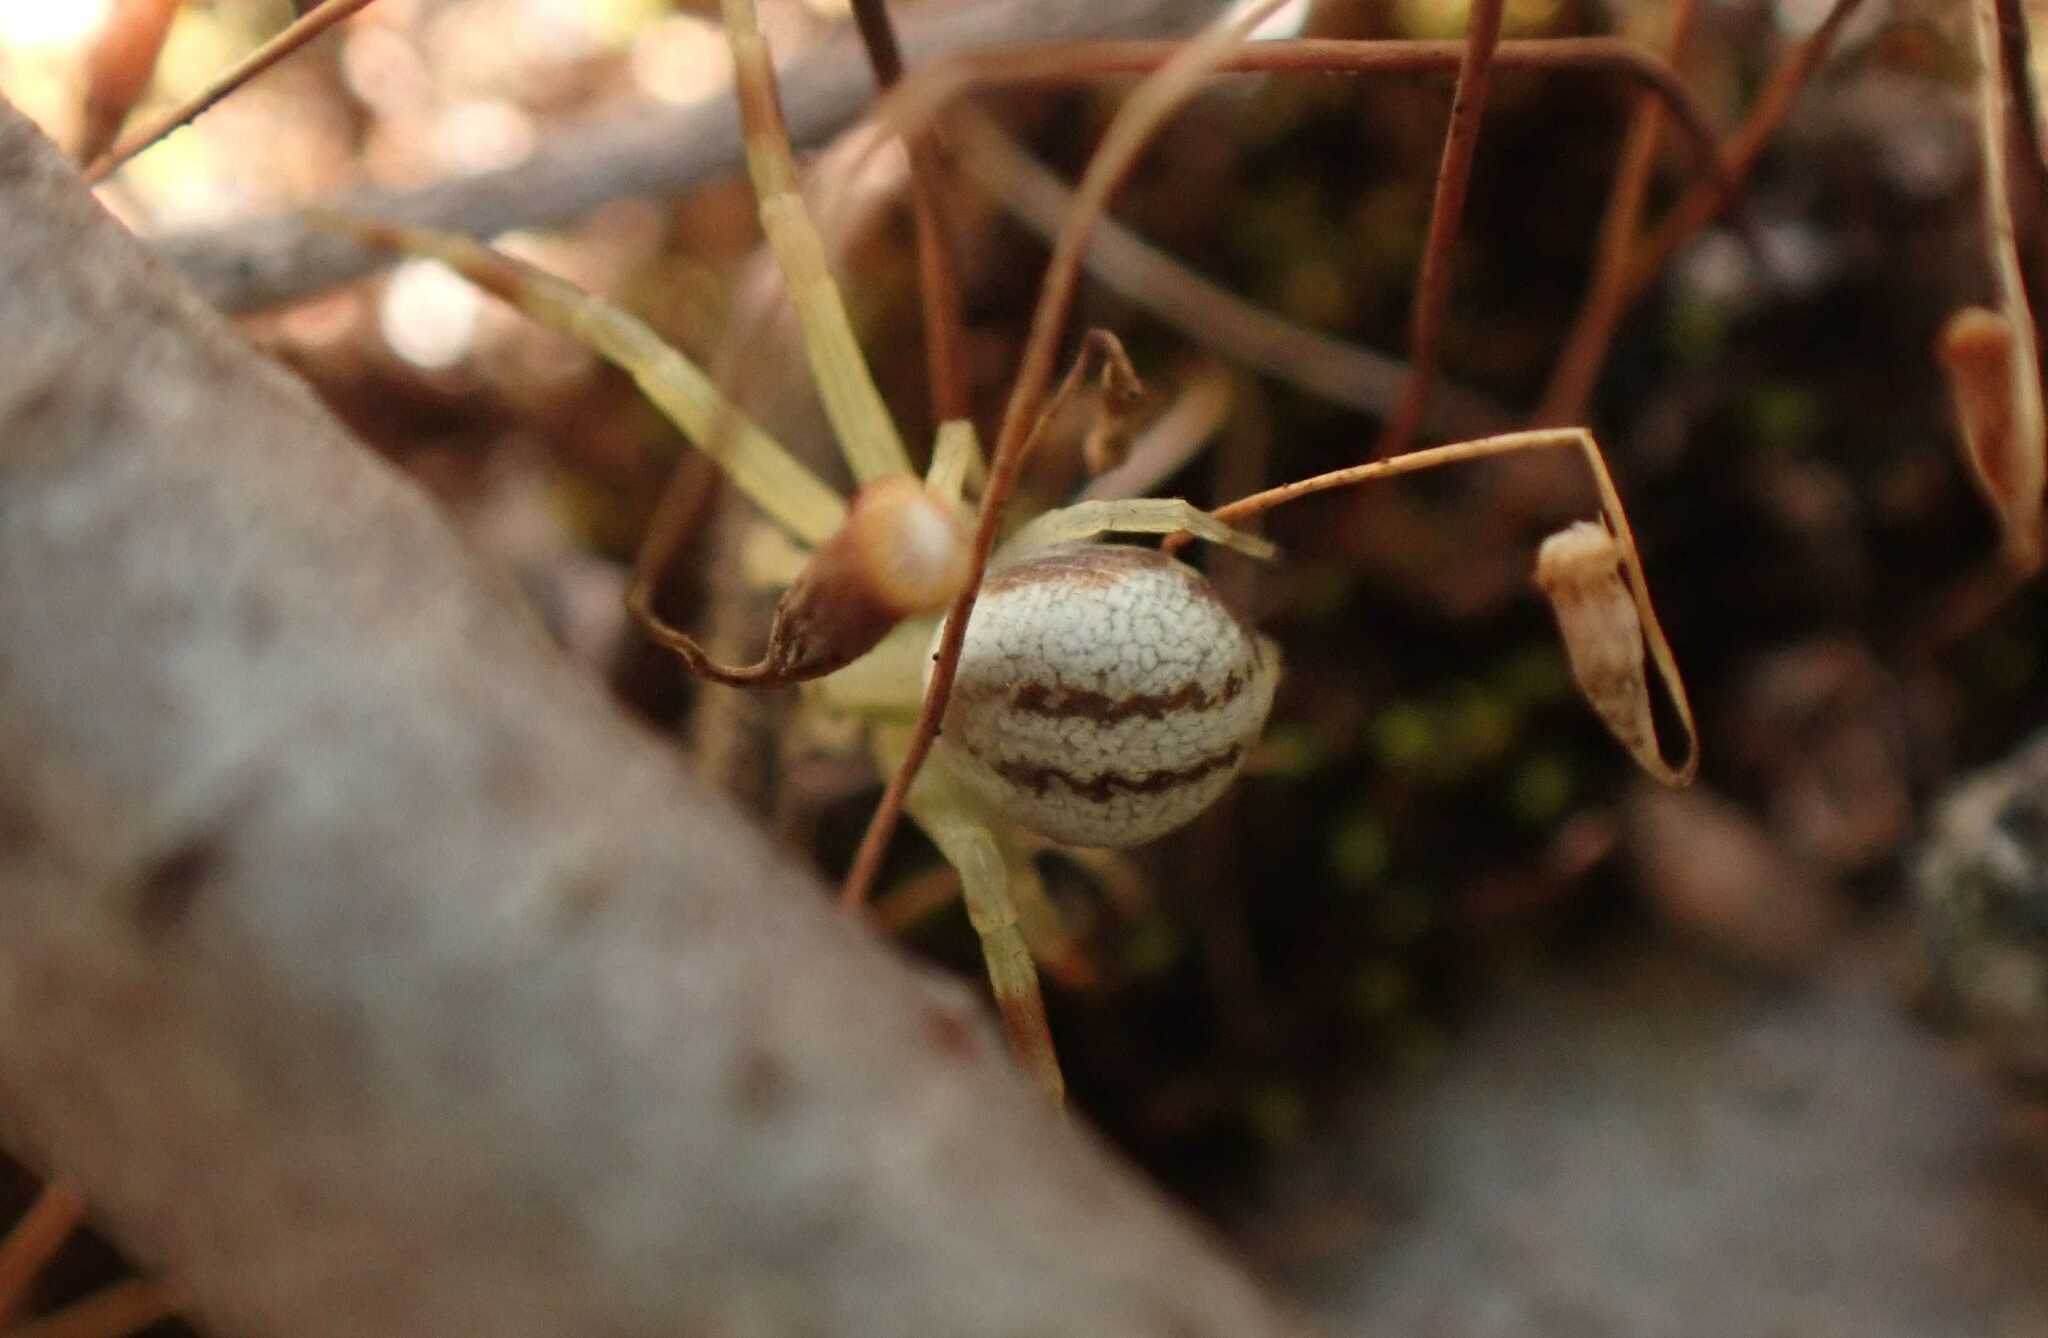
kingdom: Animalia
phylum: Arthropoda
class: Arachnida
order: Araneae
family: Thomisidae
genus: Misumena
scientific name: Misumena vatia
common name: Goldenrod crab spider
